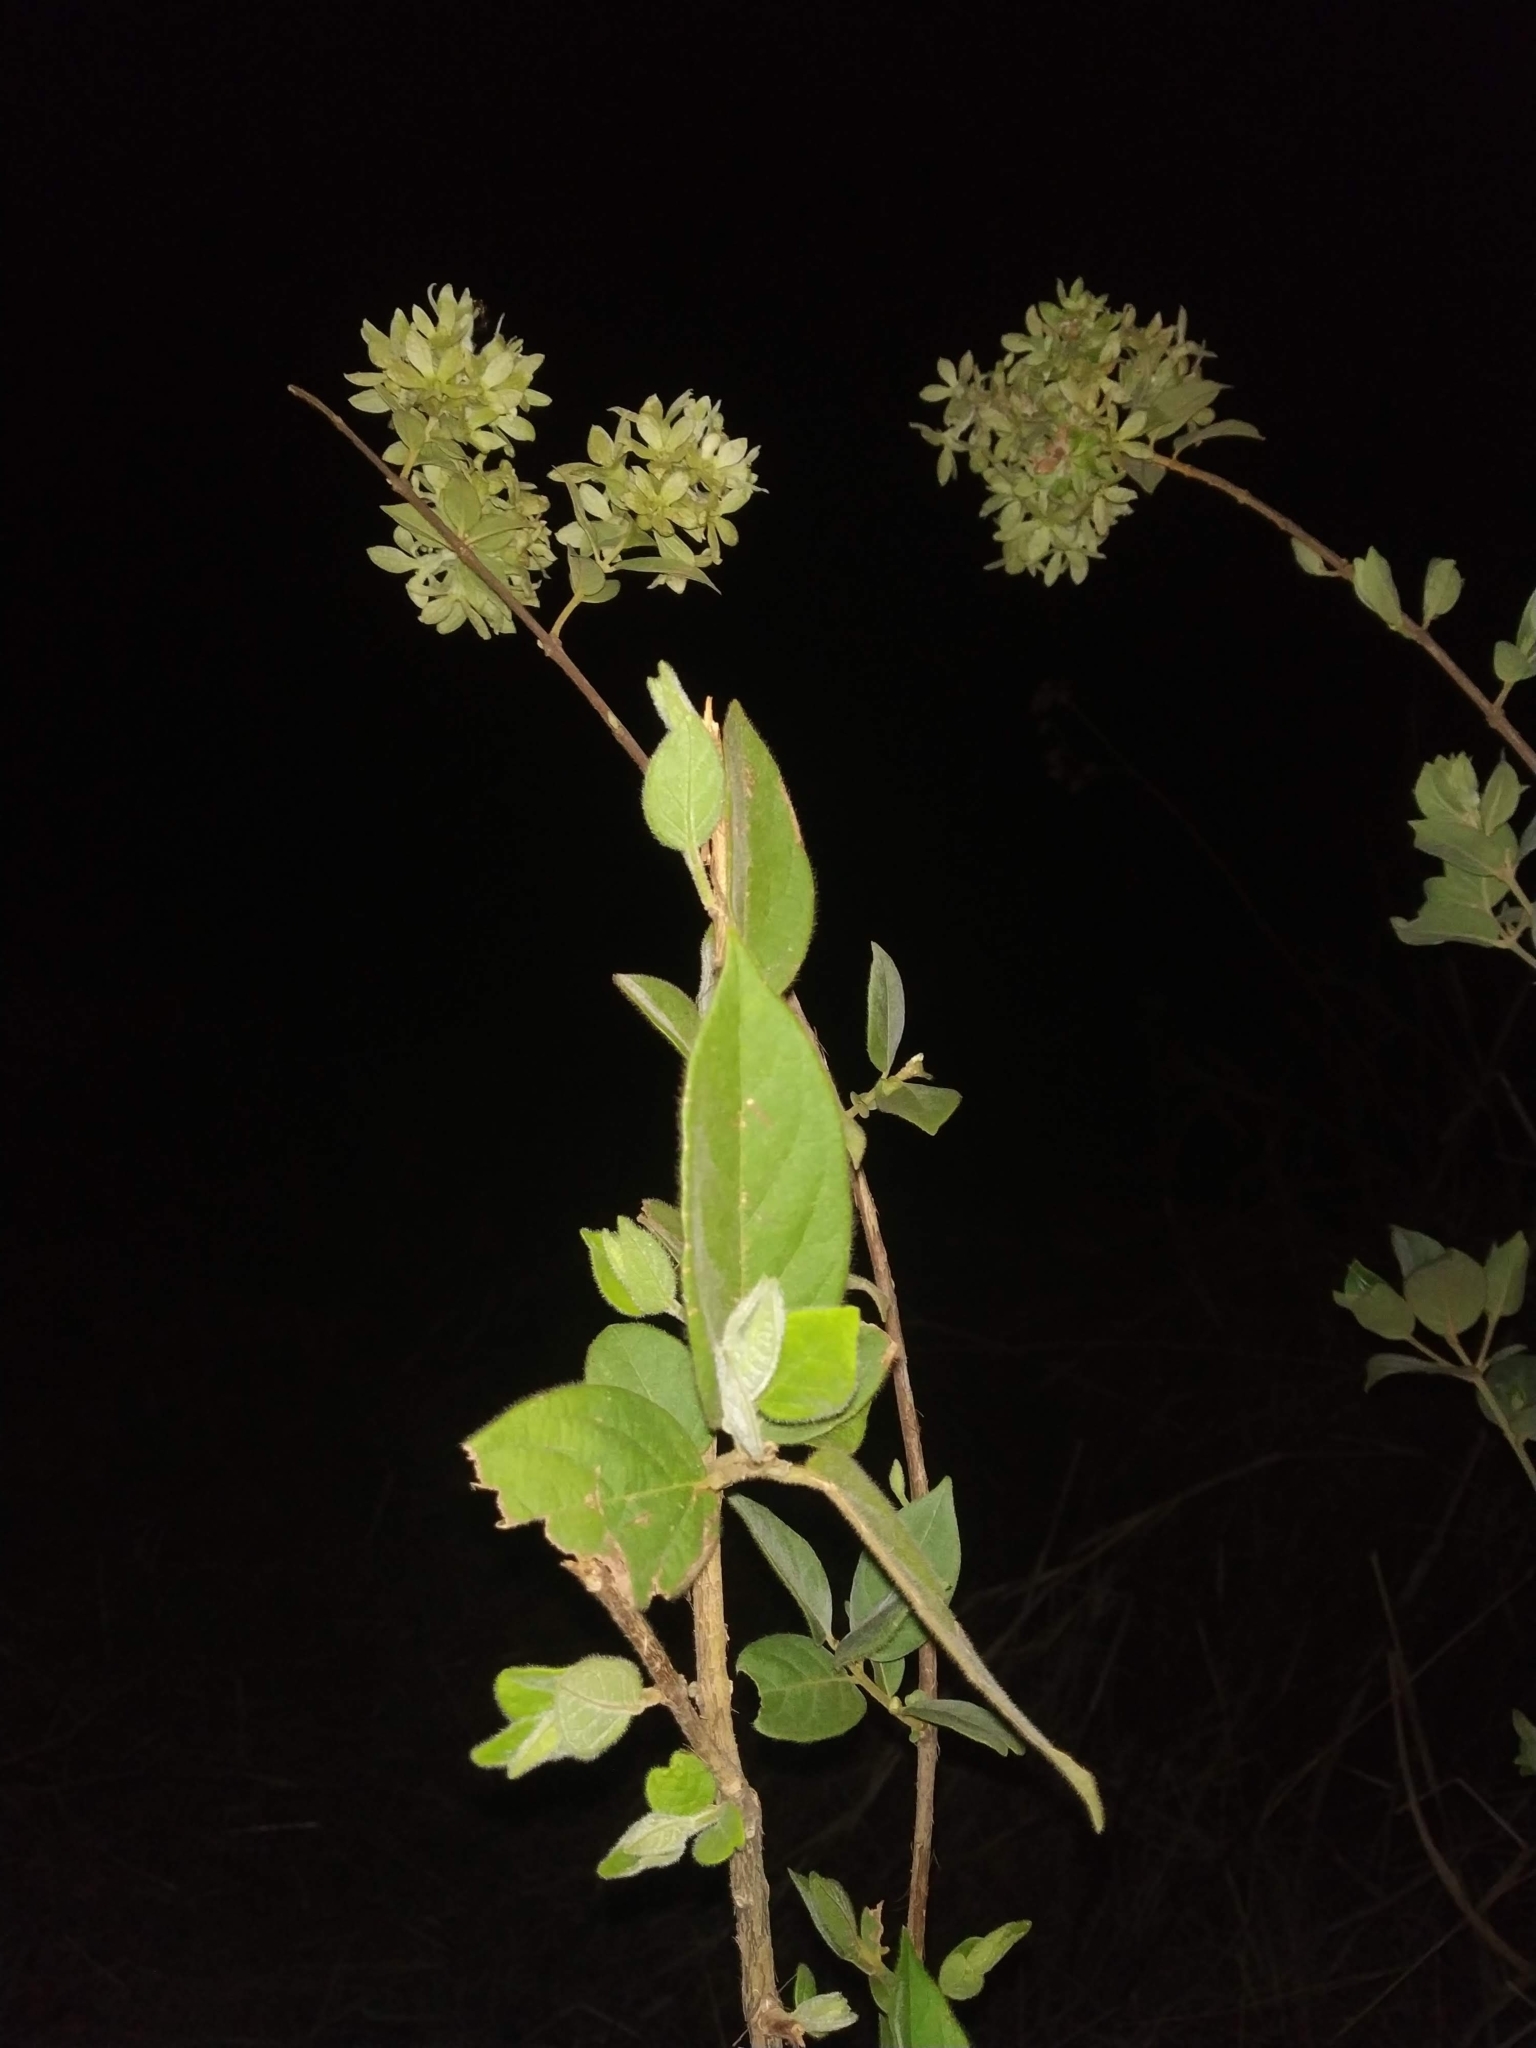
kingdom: Plantae
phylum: Tracheophyta
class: Magnoliopsida
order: Myrtales
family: Combretaceae
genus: Getonia
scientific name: Getonia floribunda
